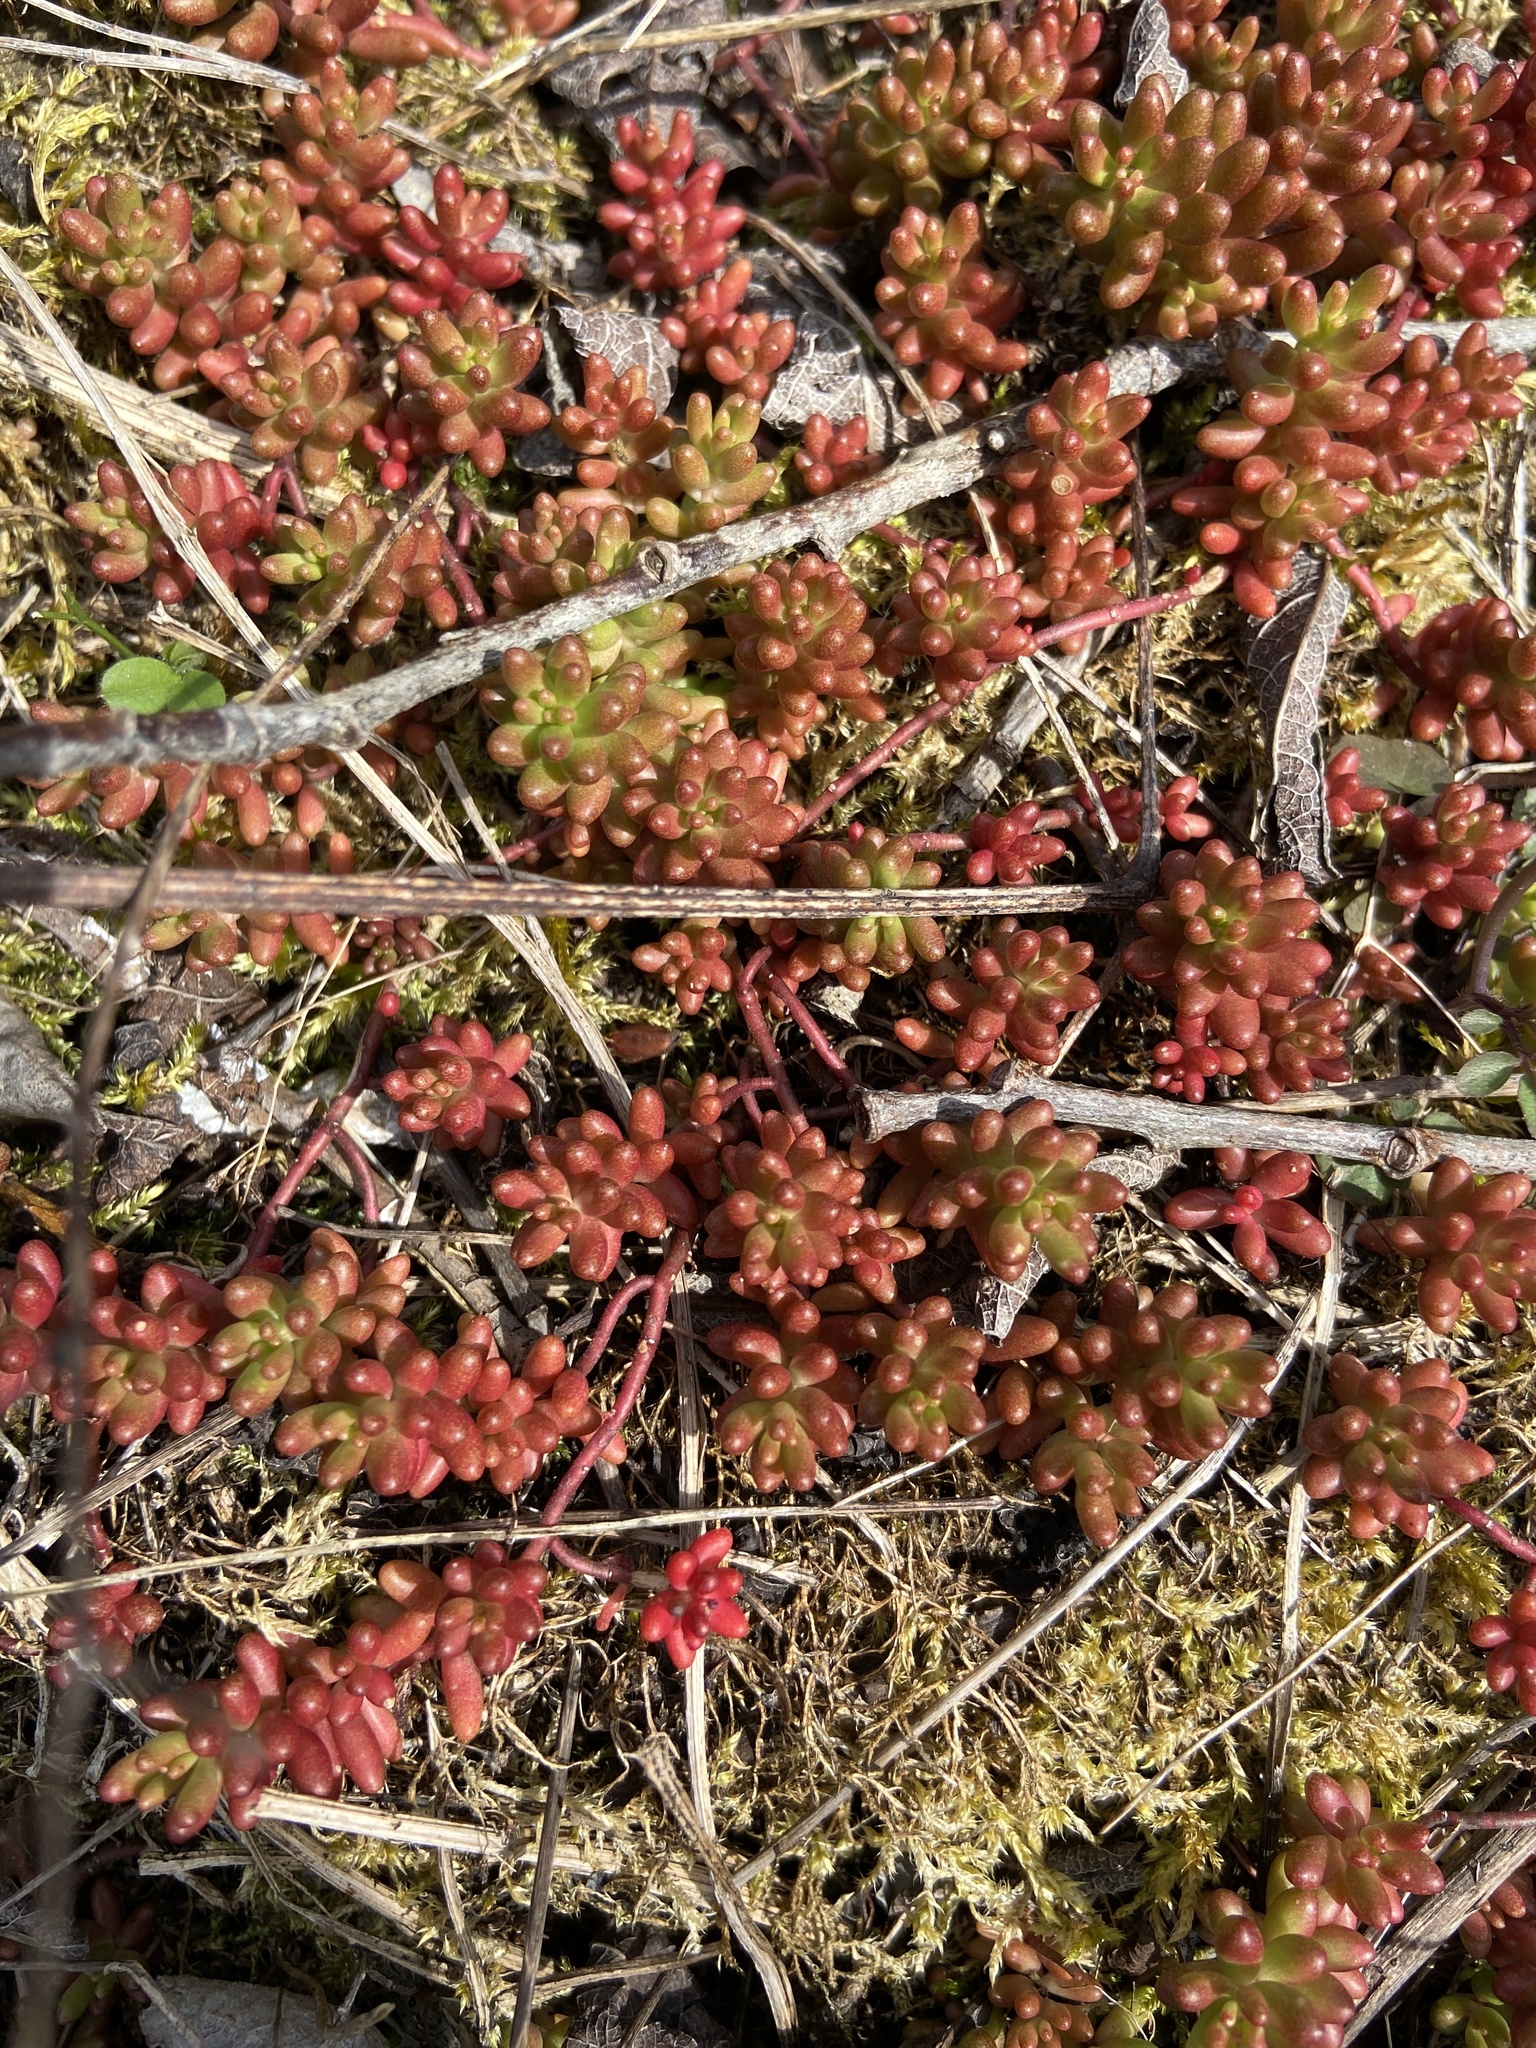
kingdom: Plantae
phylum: Tracheophyta
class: Magnoliopsida
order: Saxifragales
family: Crassulaceae
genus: Sedum
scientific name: Sedum album
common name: White stonecrop
